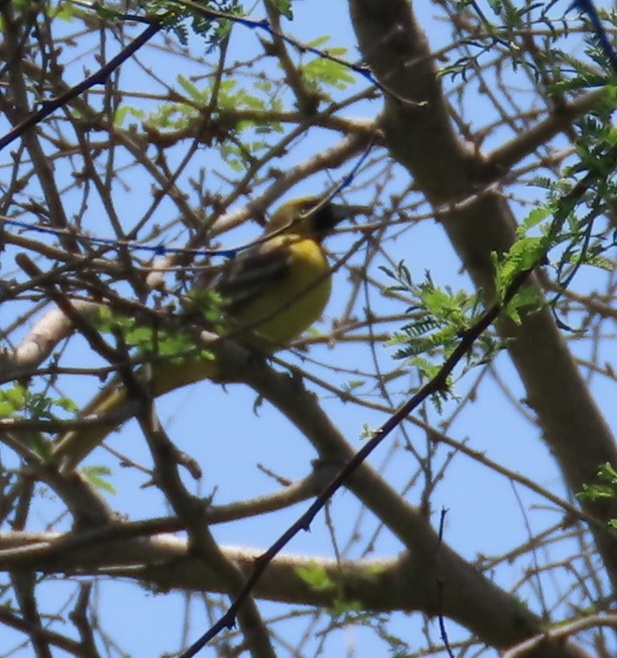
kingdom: Animalia
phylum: Chordata
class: Aves
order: Passeriformes
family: Icteridae
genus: Icterus
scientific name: Icterus spurius
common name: Orchard oriole
